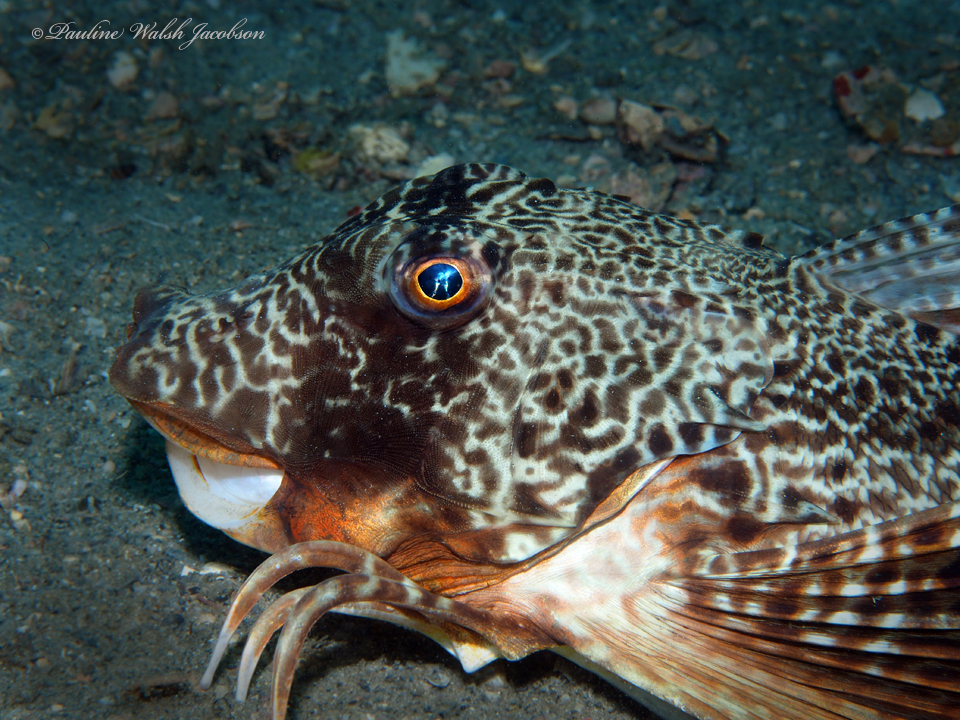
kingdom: Animalia
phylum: Chordata
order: Scorpaeniformes
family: Triglidae
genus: Prionotus
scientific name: Prionotus tribulus
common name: Bighead searobin
